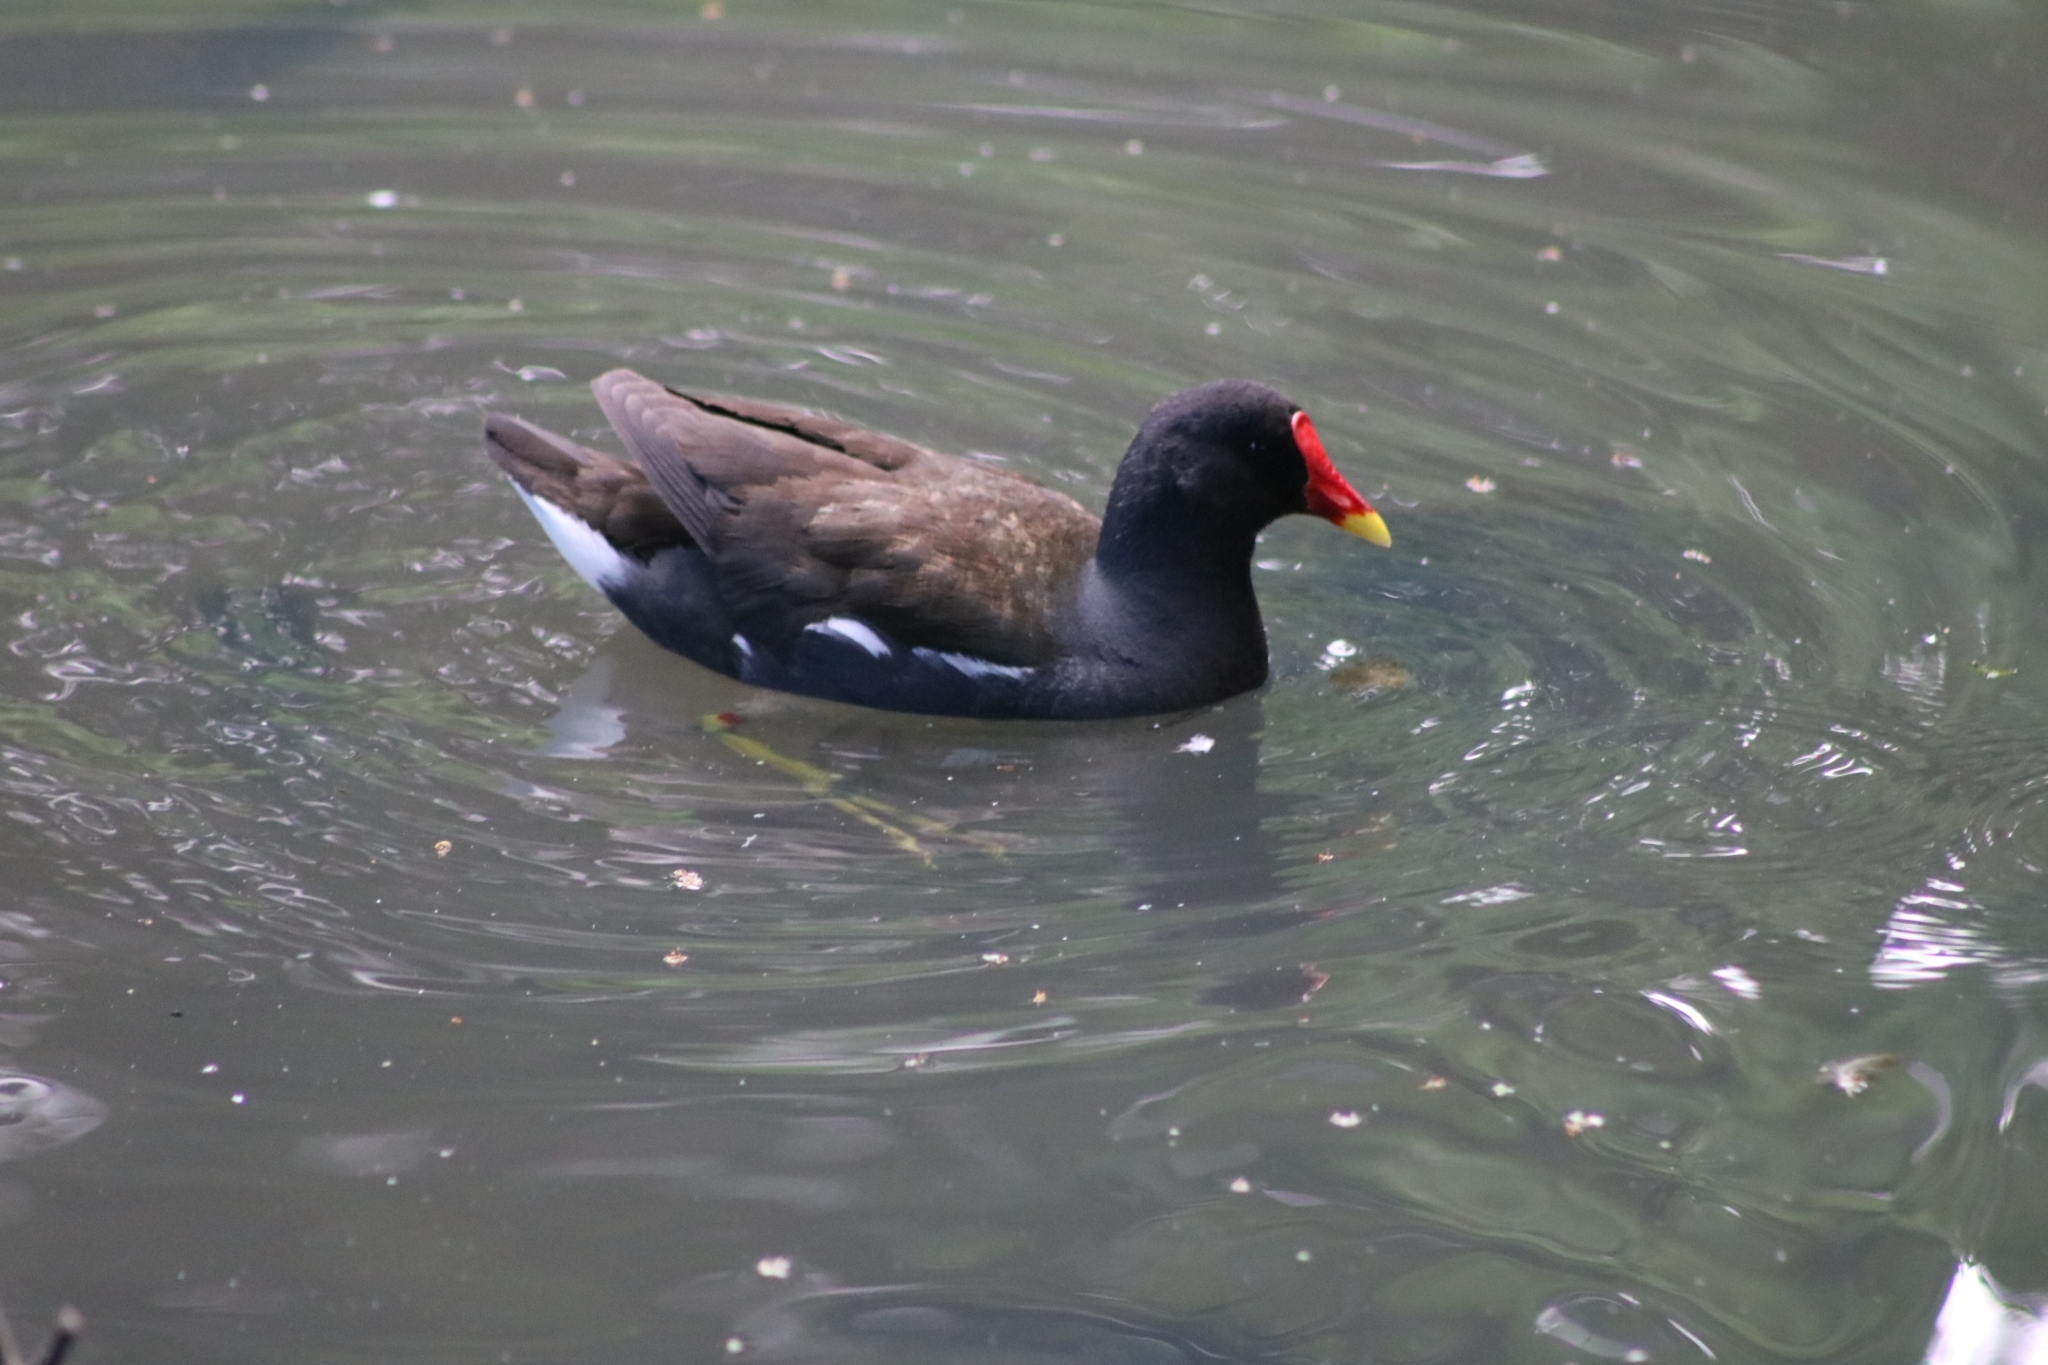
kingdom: Animalia
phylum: Chordata
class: Aves
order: Gruiformes
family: Rallidae
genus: Gallinula
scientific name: Gallinula chloropus
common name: Common moorhen
